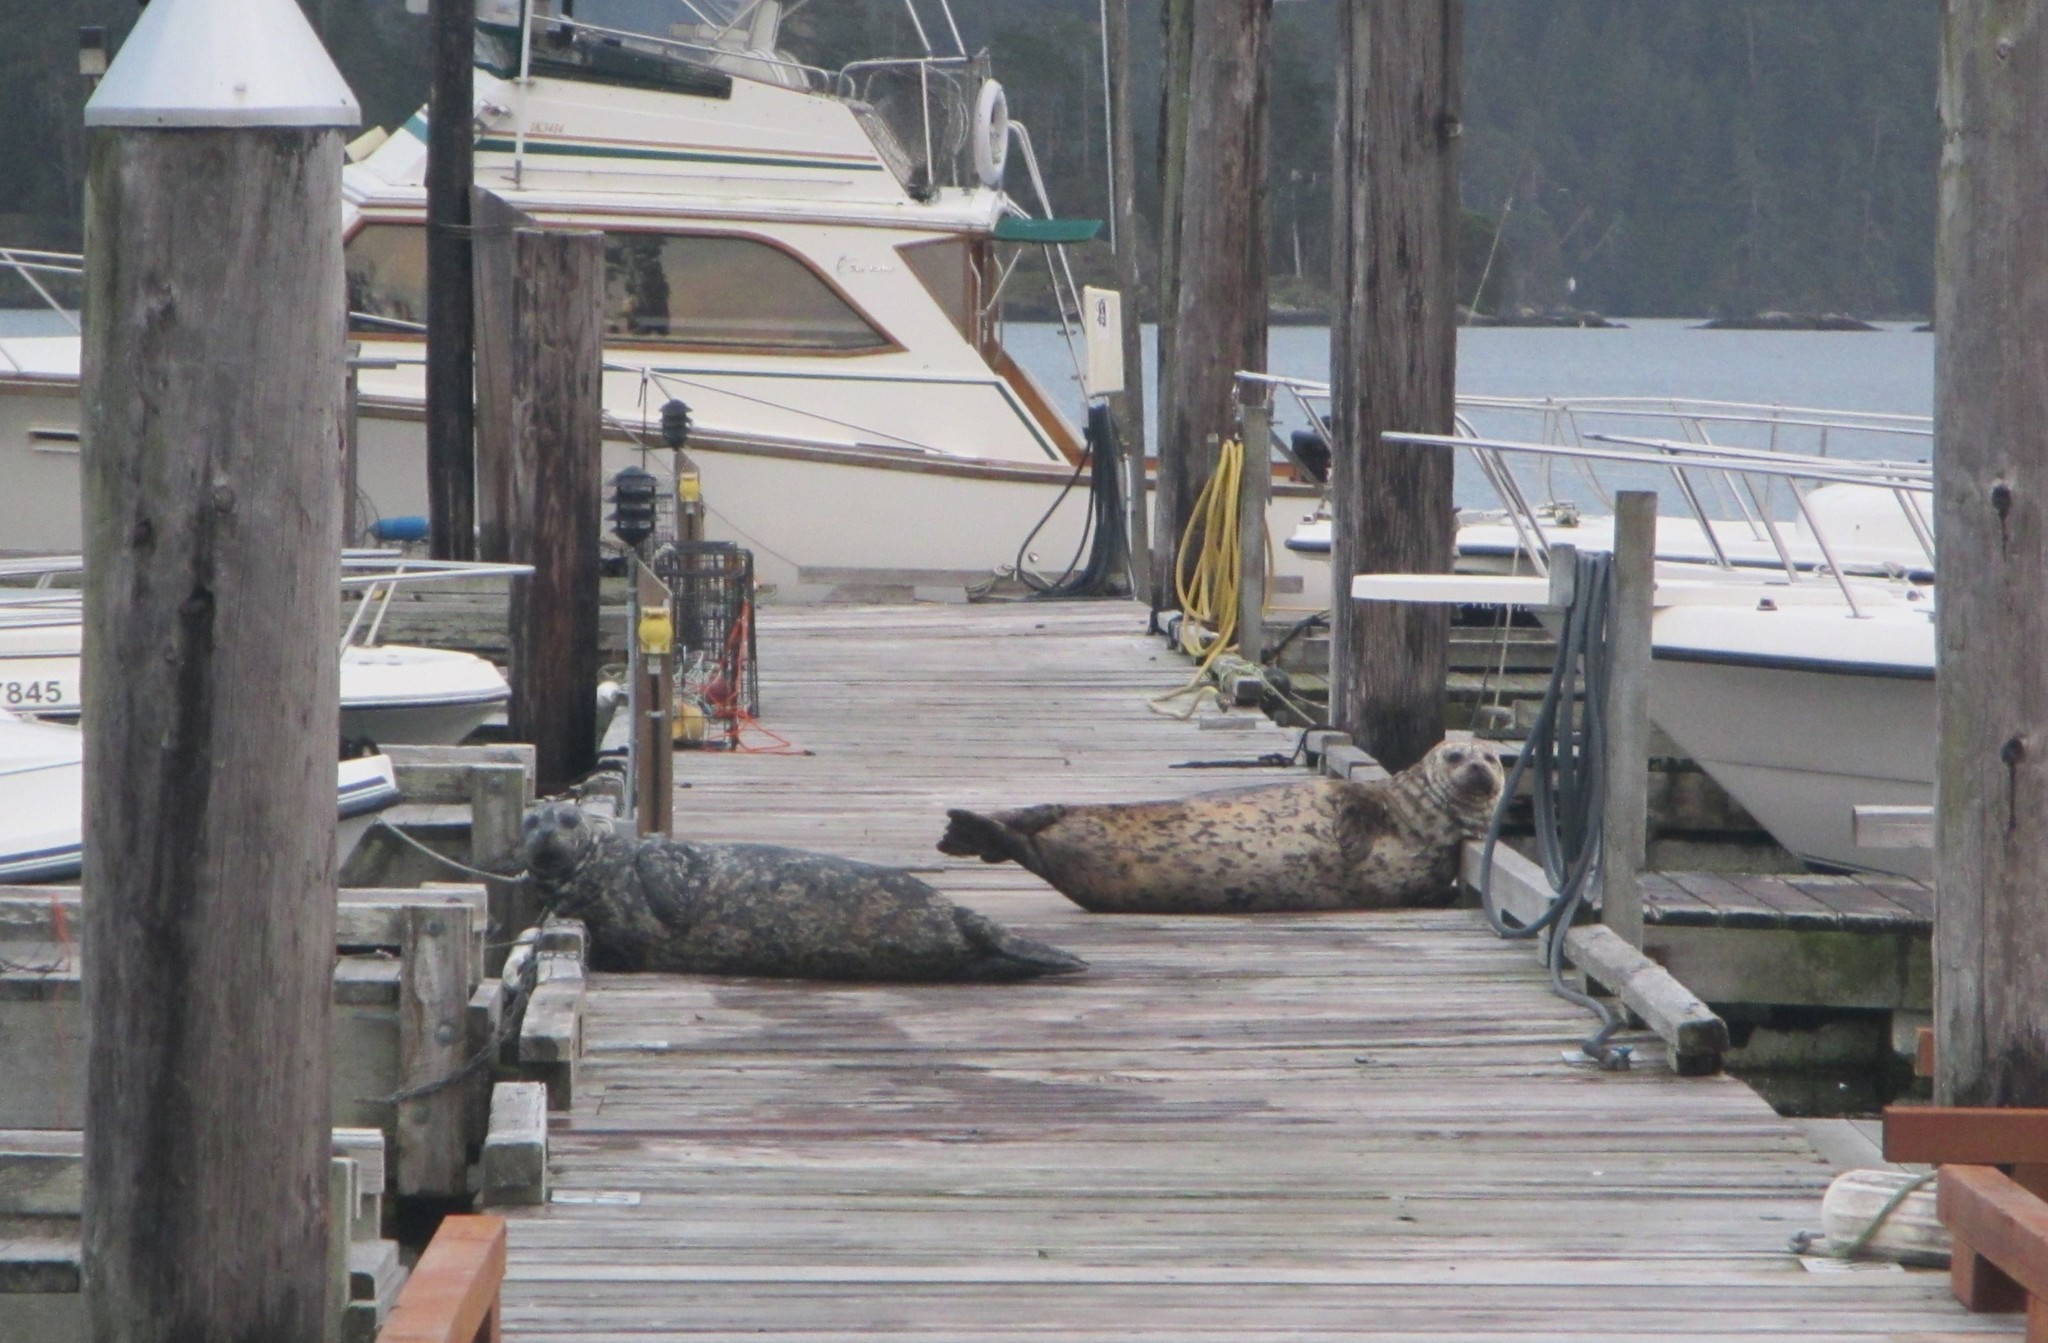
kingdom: Animalia
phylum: Chordata
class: Mammalia
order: Carnivora
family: Phocidae
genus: Phoca
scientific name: Phoca vitulina
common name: Harbor seal
